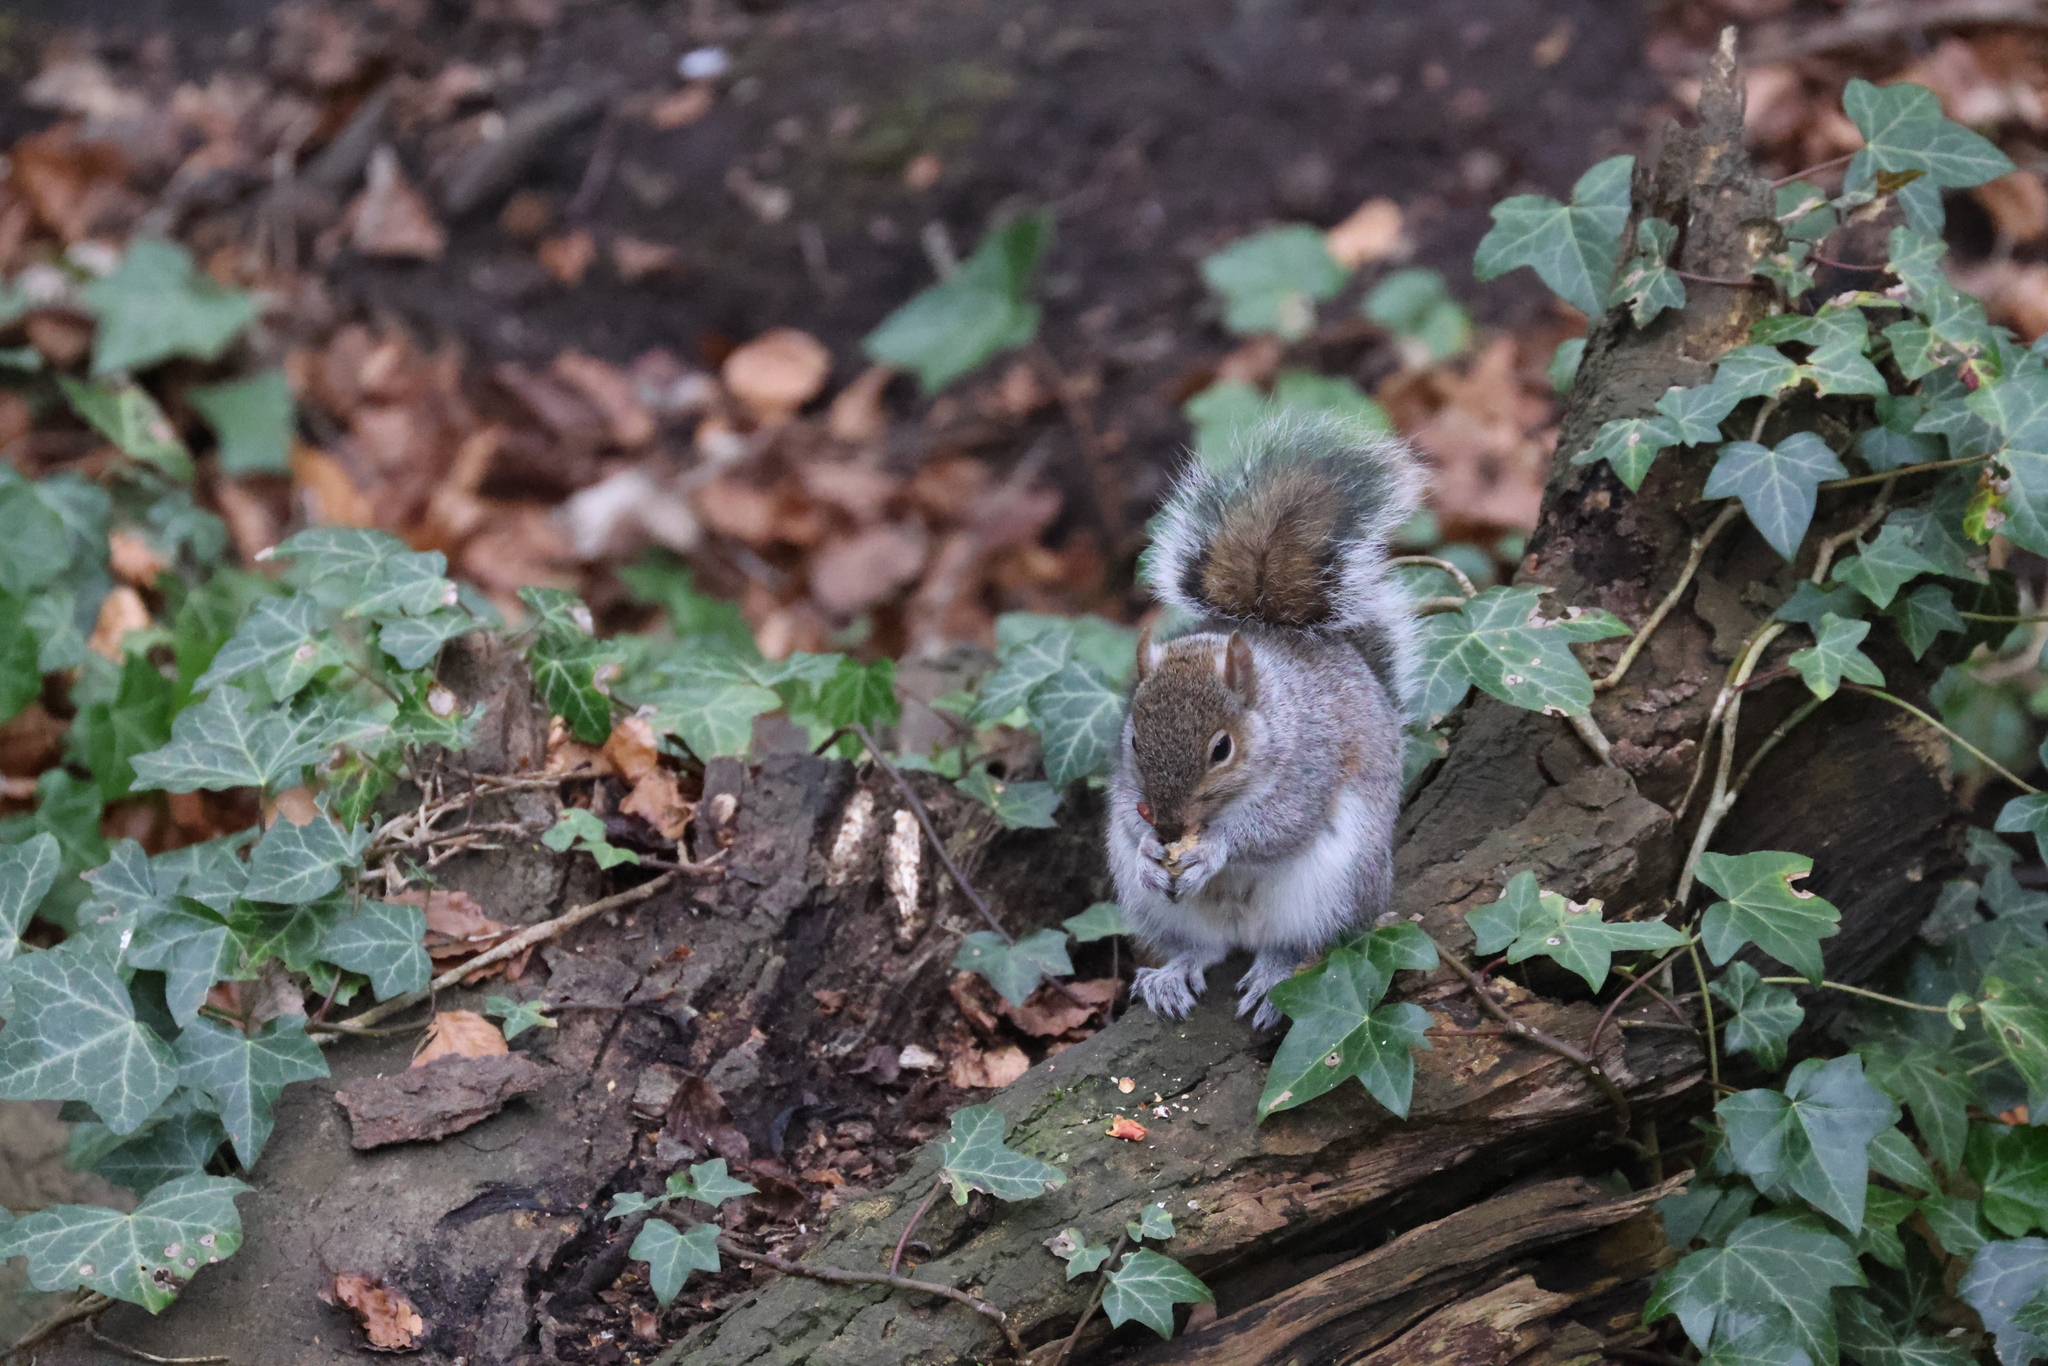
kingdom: Animalia
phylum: Chordata
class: Mammalia
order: Rodentia
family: Sciuridae
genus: Sciurus
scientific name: Sciurus carolinensis
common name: Eastern gray squirrel
